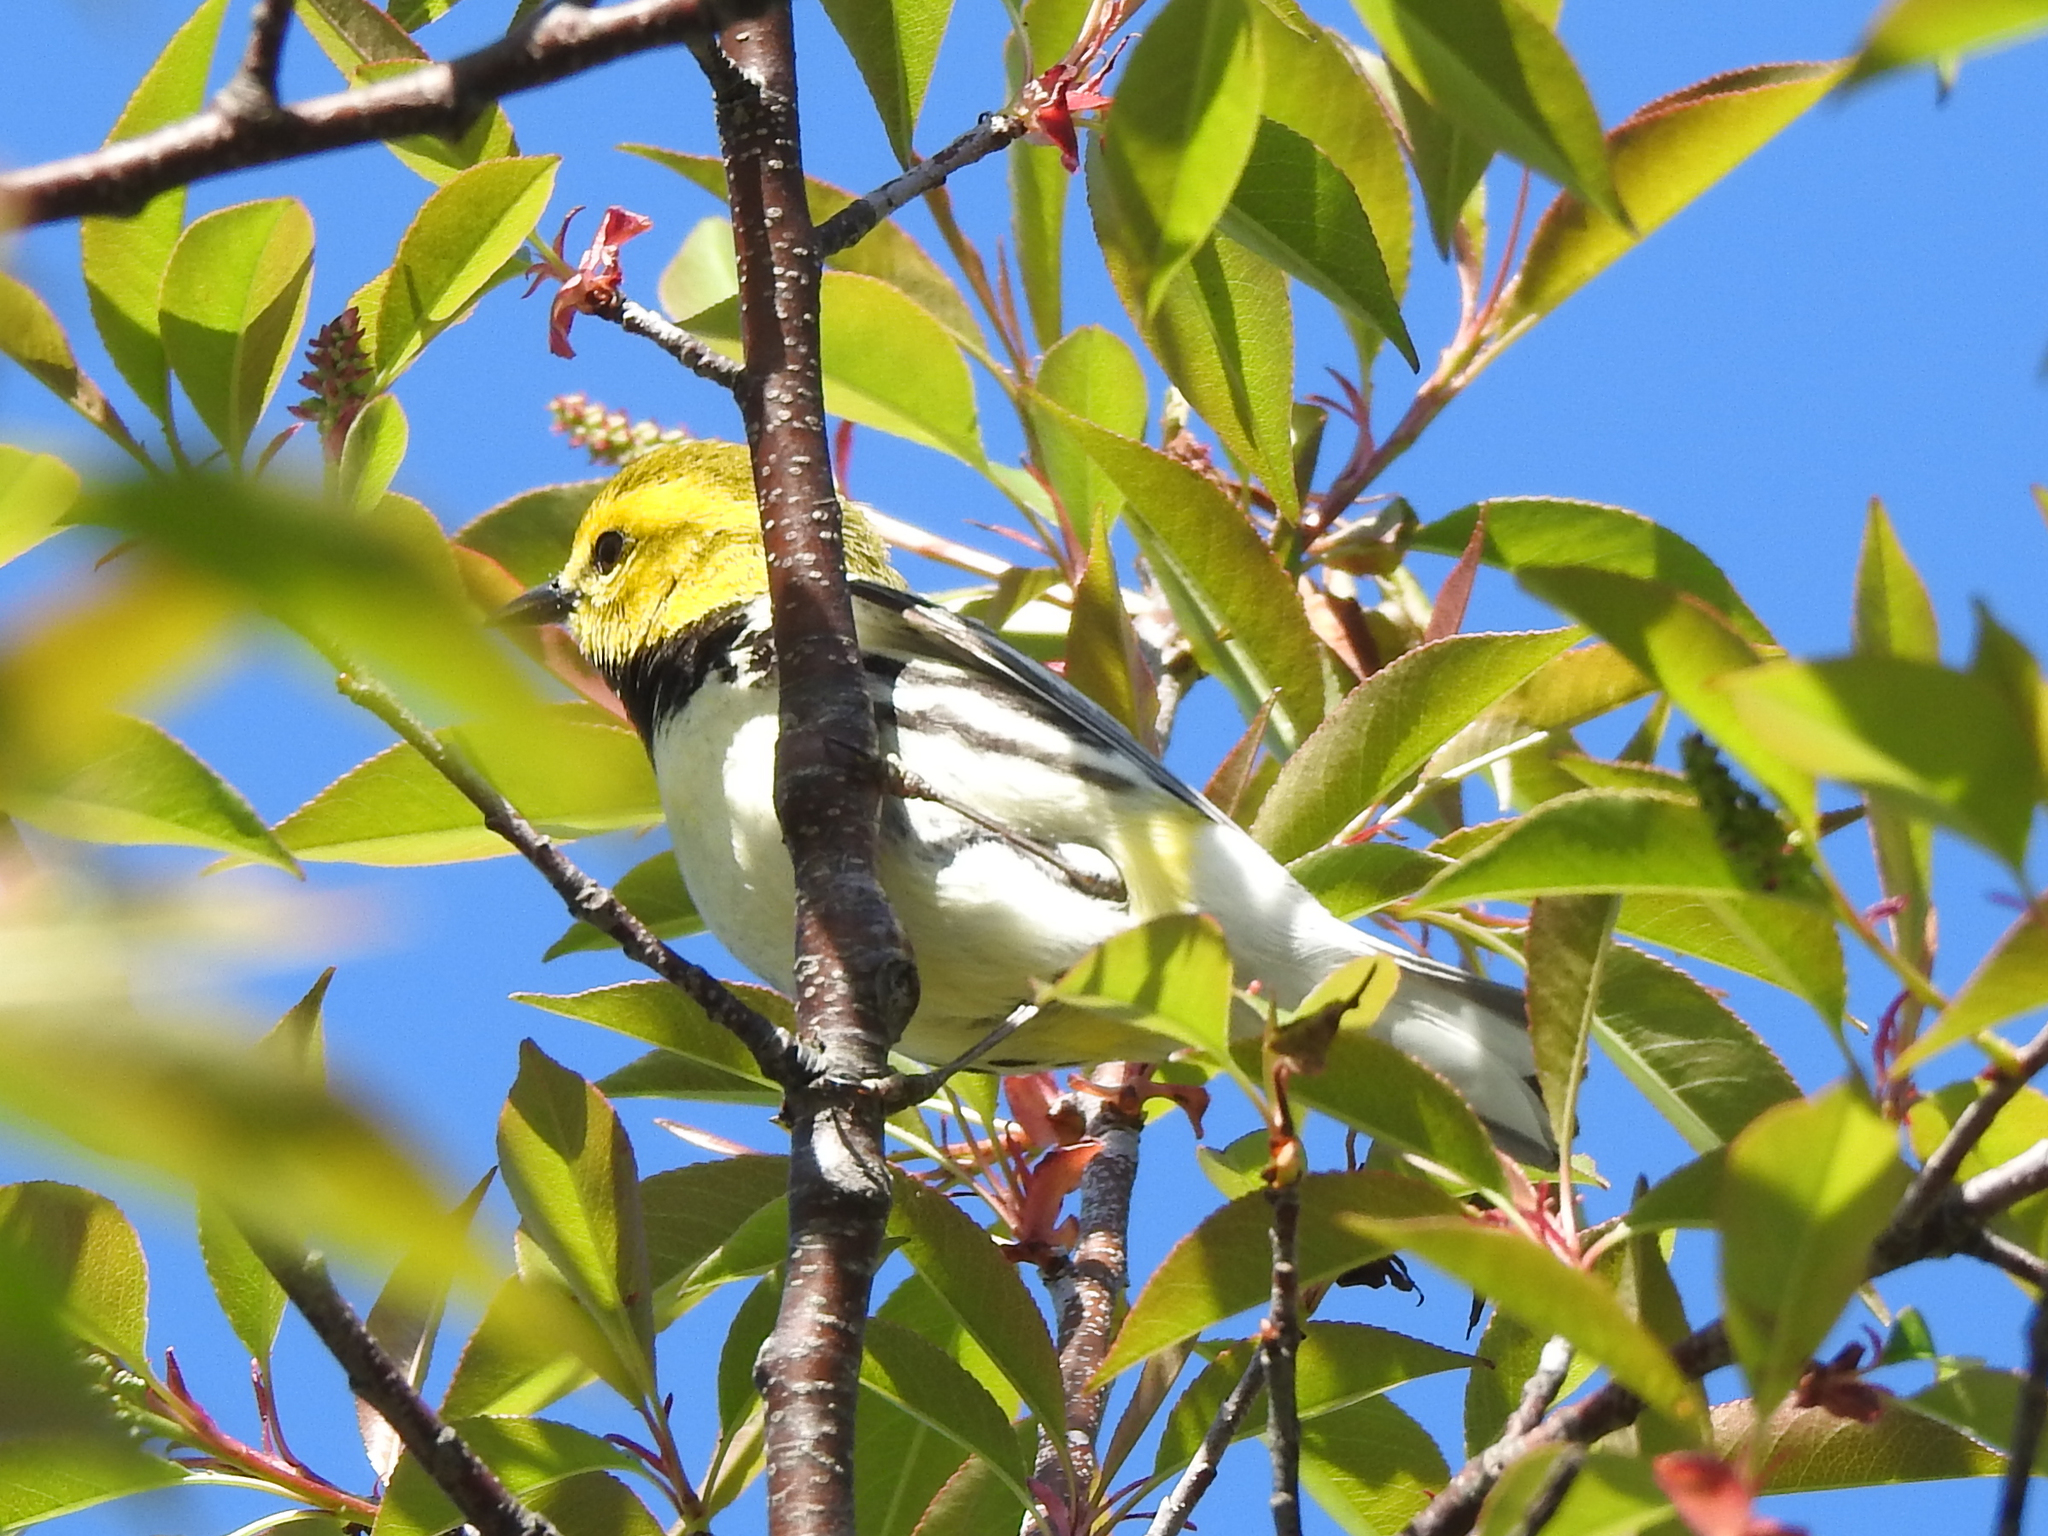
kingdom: Animalia
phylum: Chordata
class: Aves
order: Passeriformes
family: Parulidae
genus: Setophaga
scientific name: Setophaga virens
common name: Black-throated green warbler
